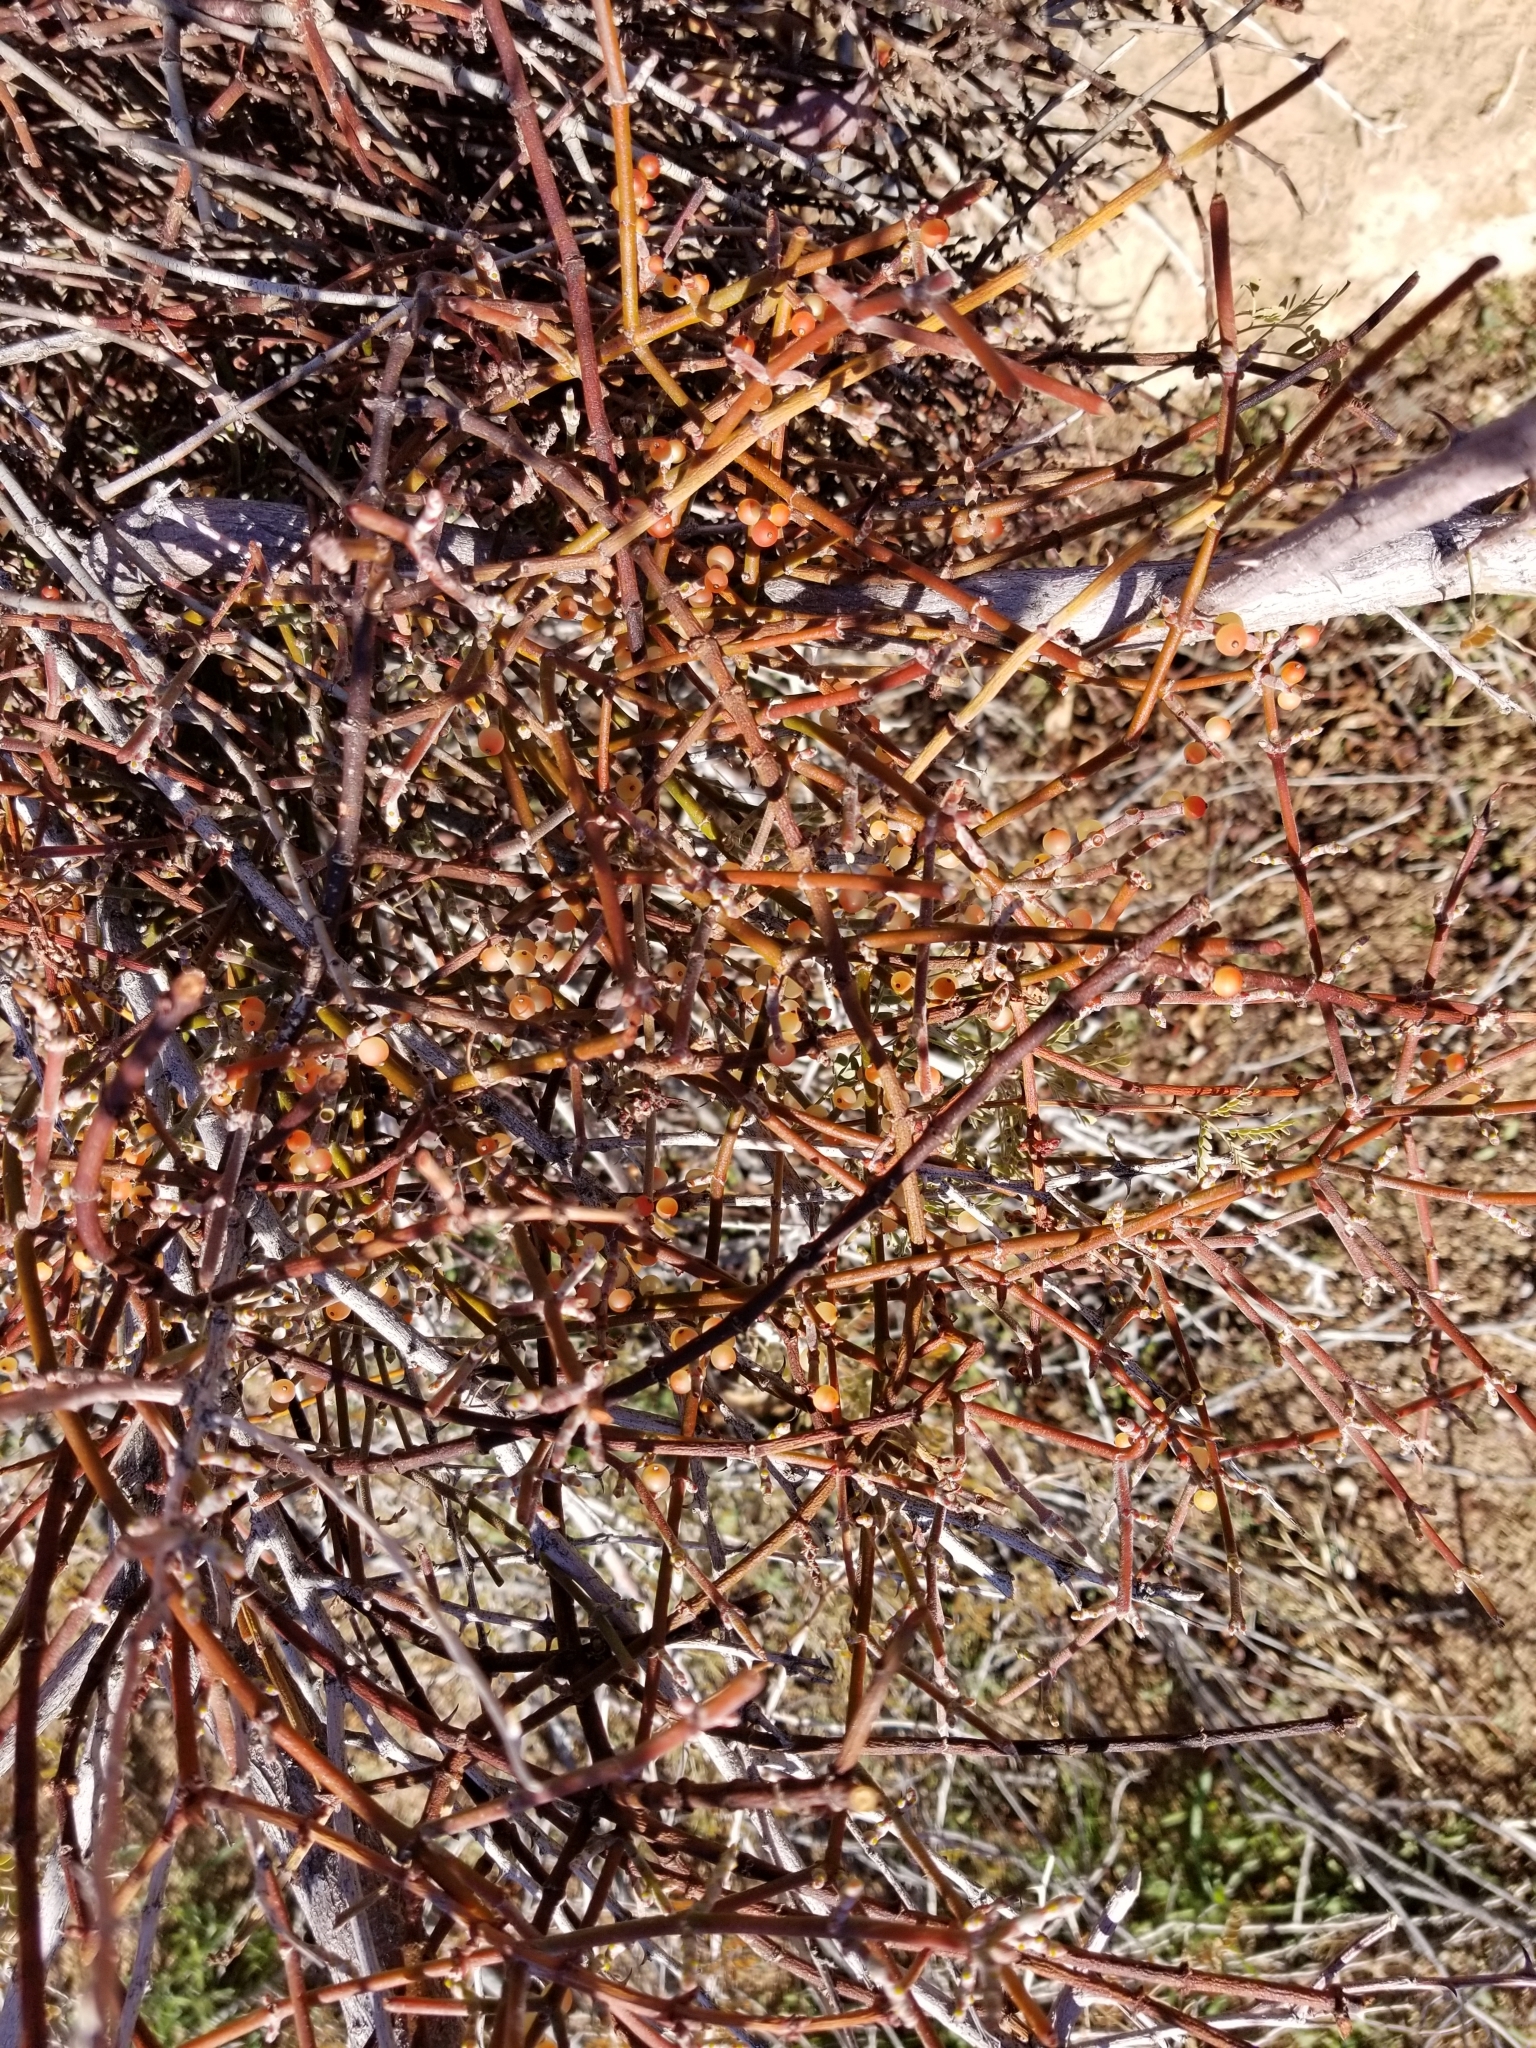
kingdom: Plantae
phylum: Tracheophyta
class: Magnoliopsida
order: Santalales
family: Viscaceae
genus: Phoradendron
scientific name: Phoradendron californicum
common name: Acacia mistletoe
